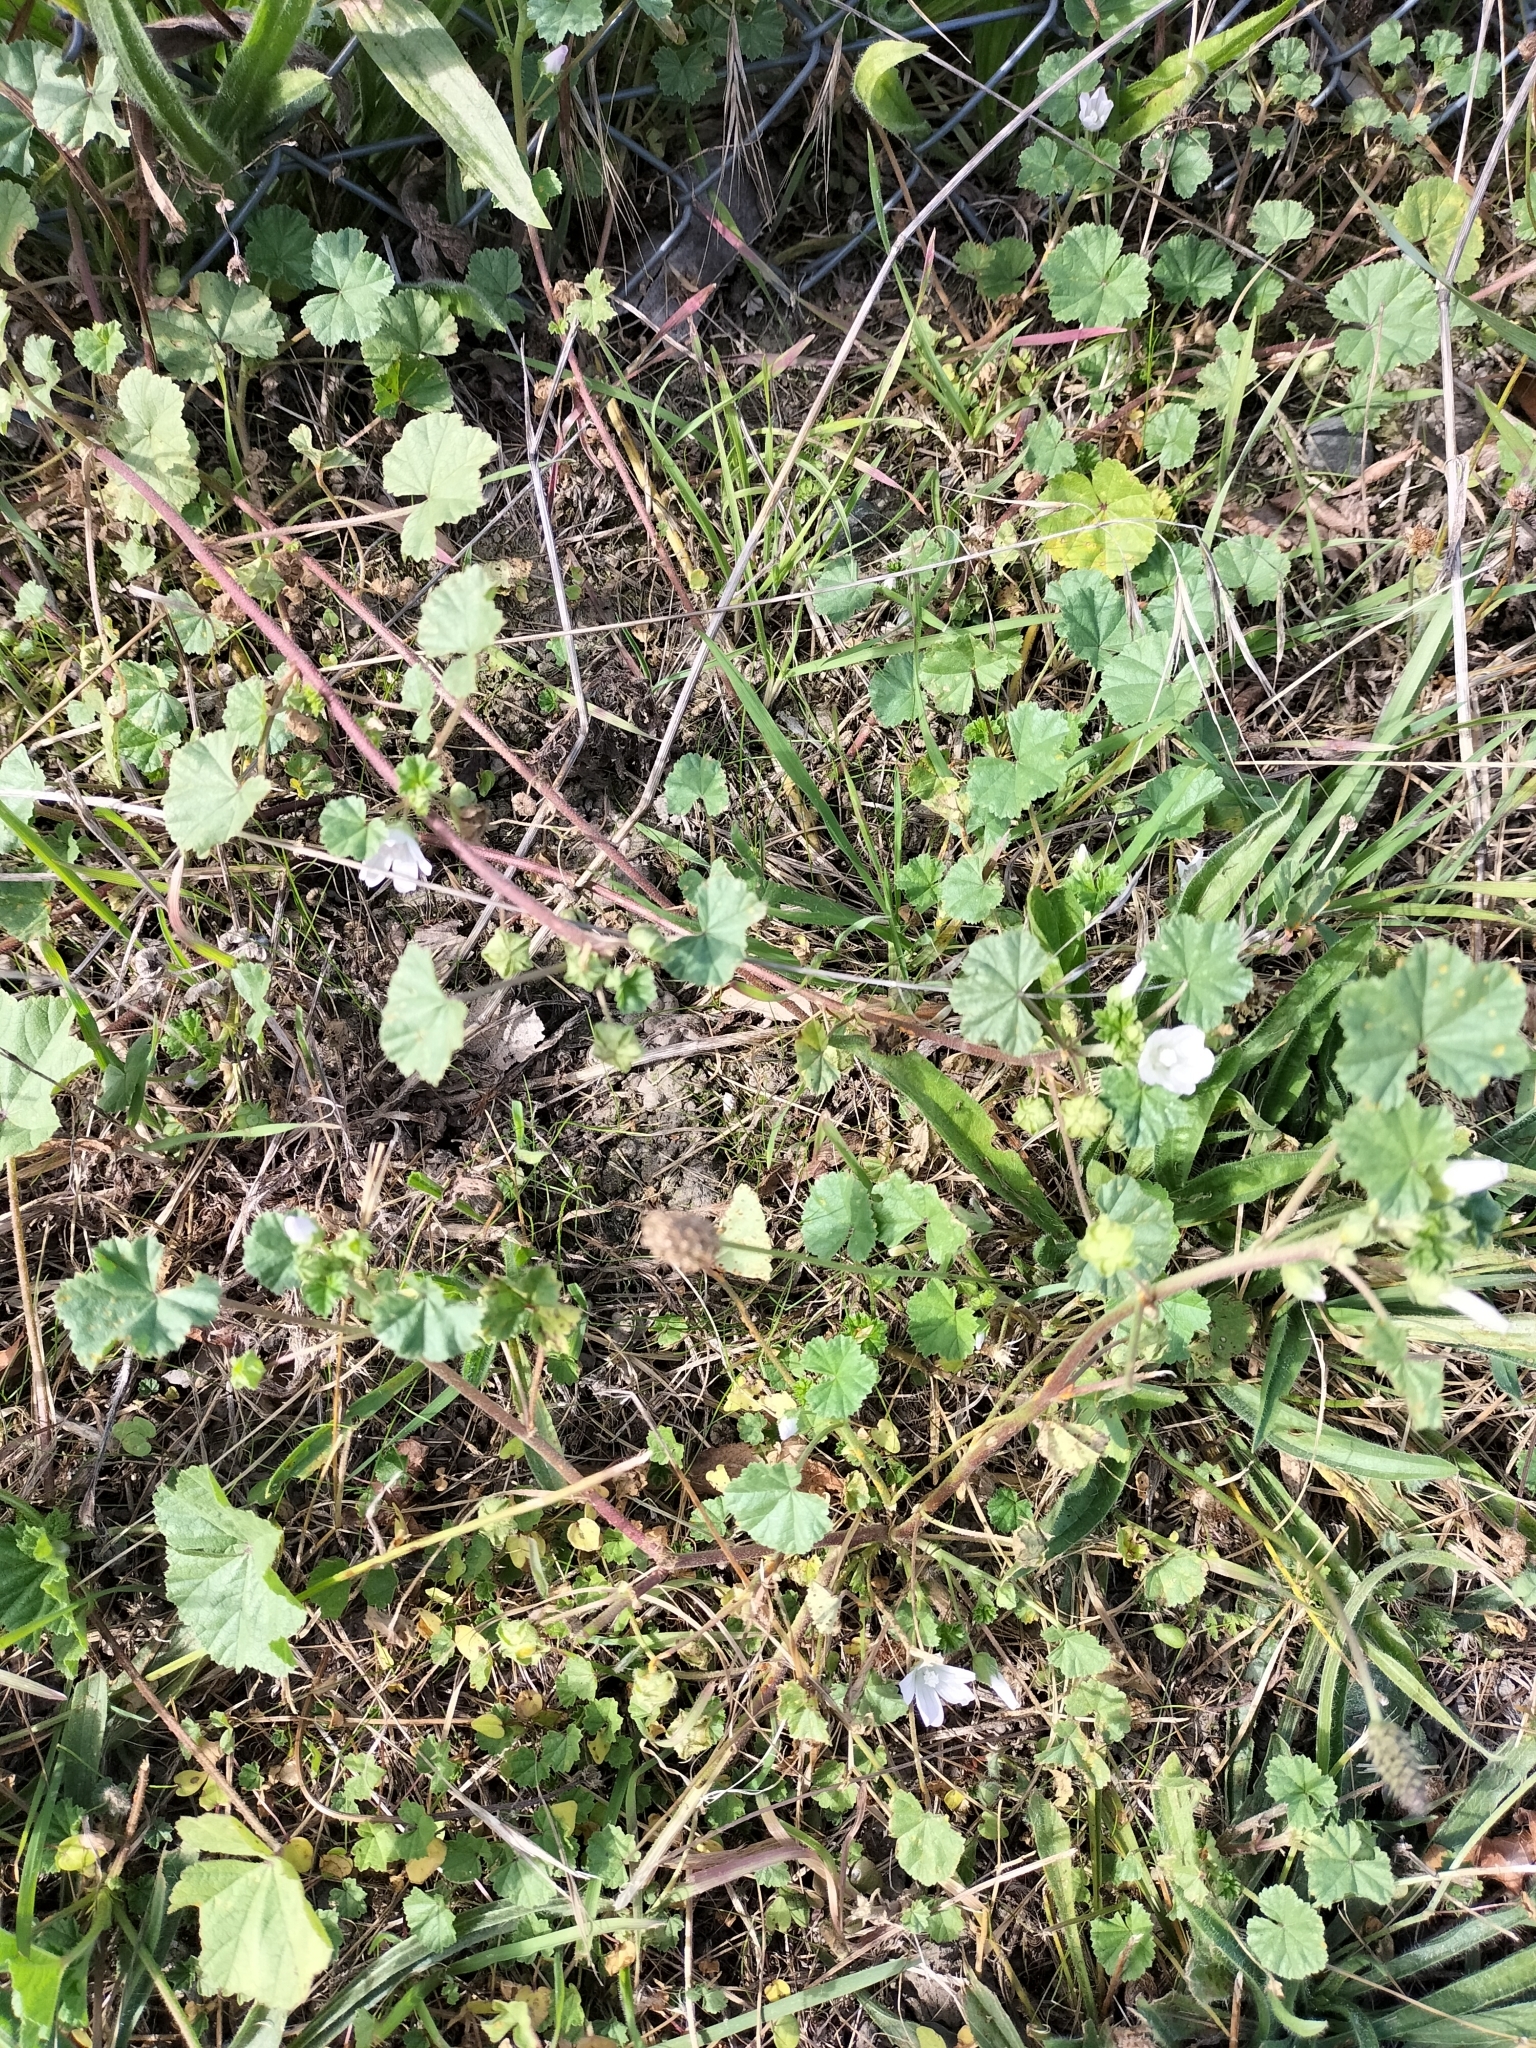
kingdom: Plantae
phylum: Tracheophyta
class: Magnoliopsida
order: Malvales
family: Malvaceae
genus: Malva
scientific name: Malva neglecta
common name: Common mallow
